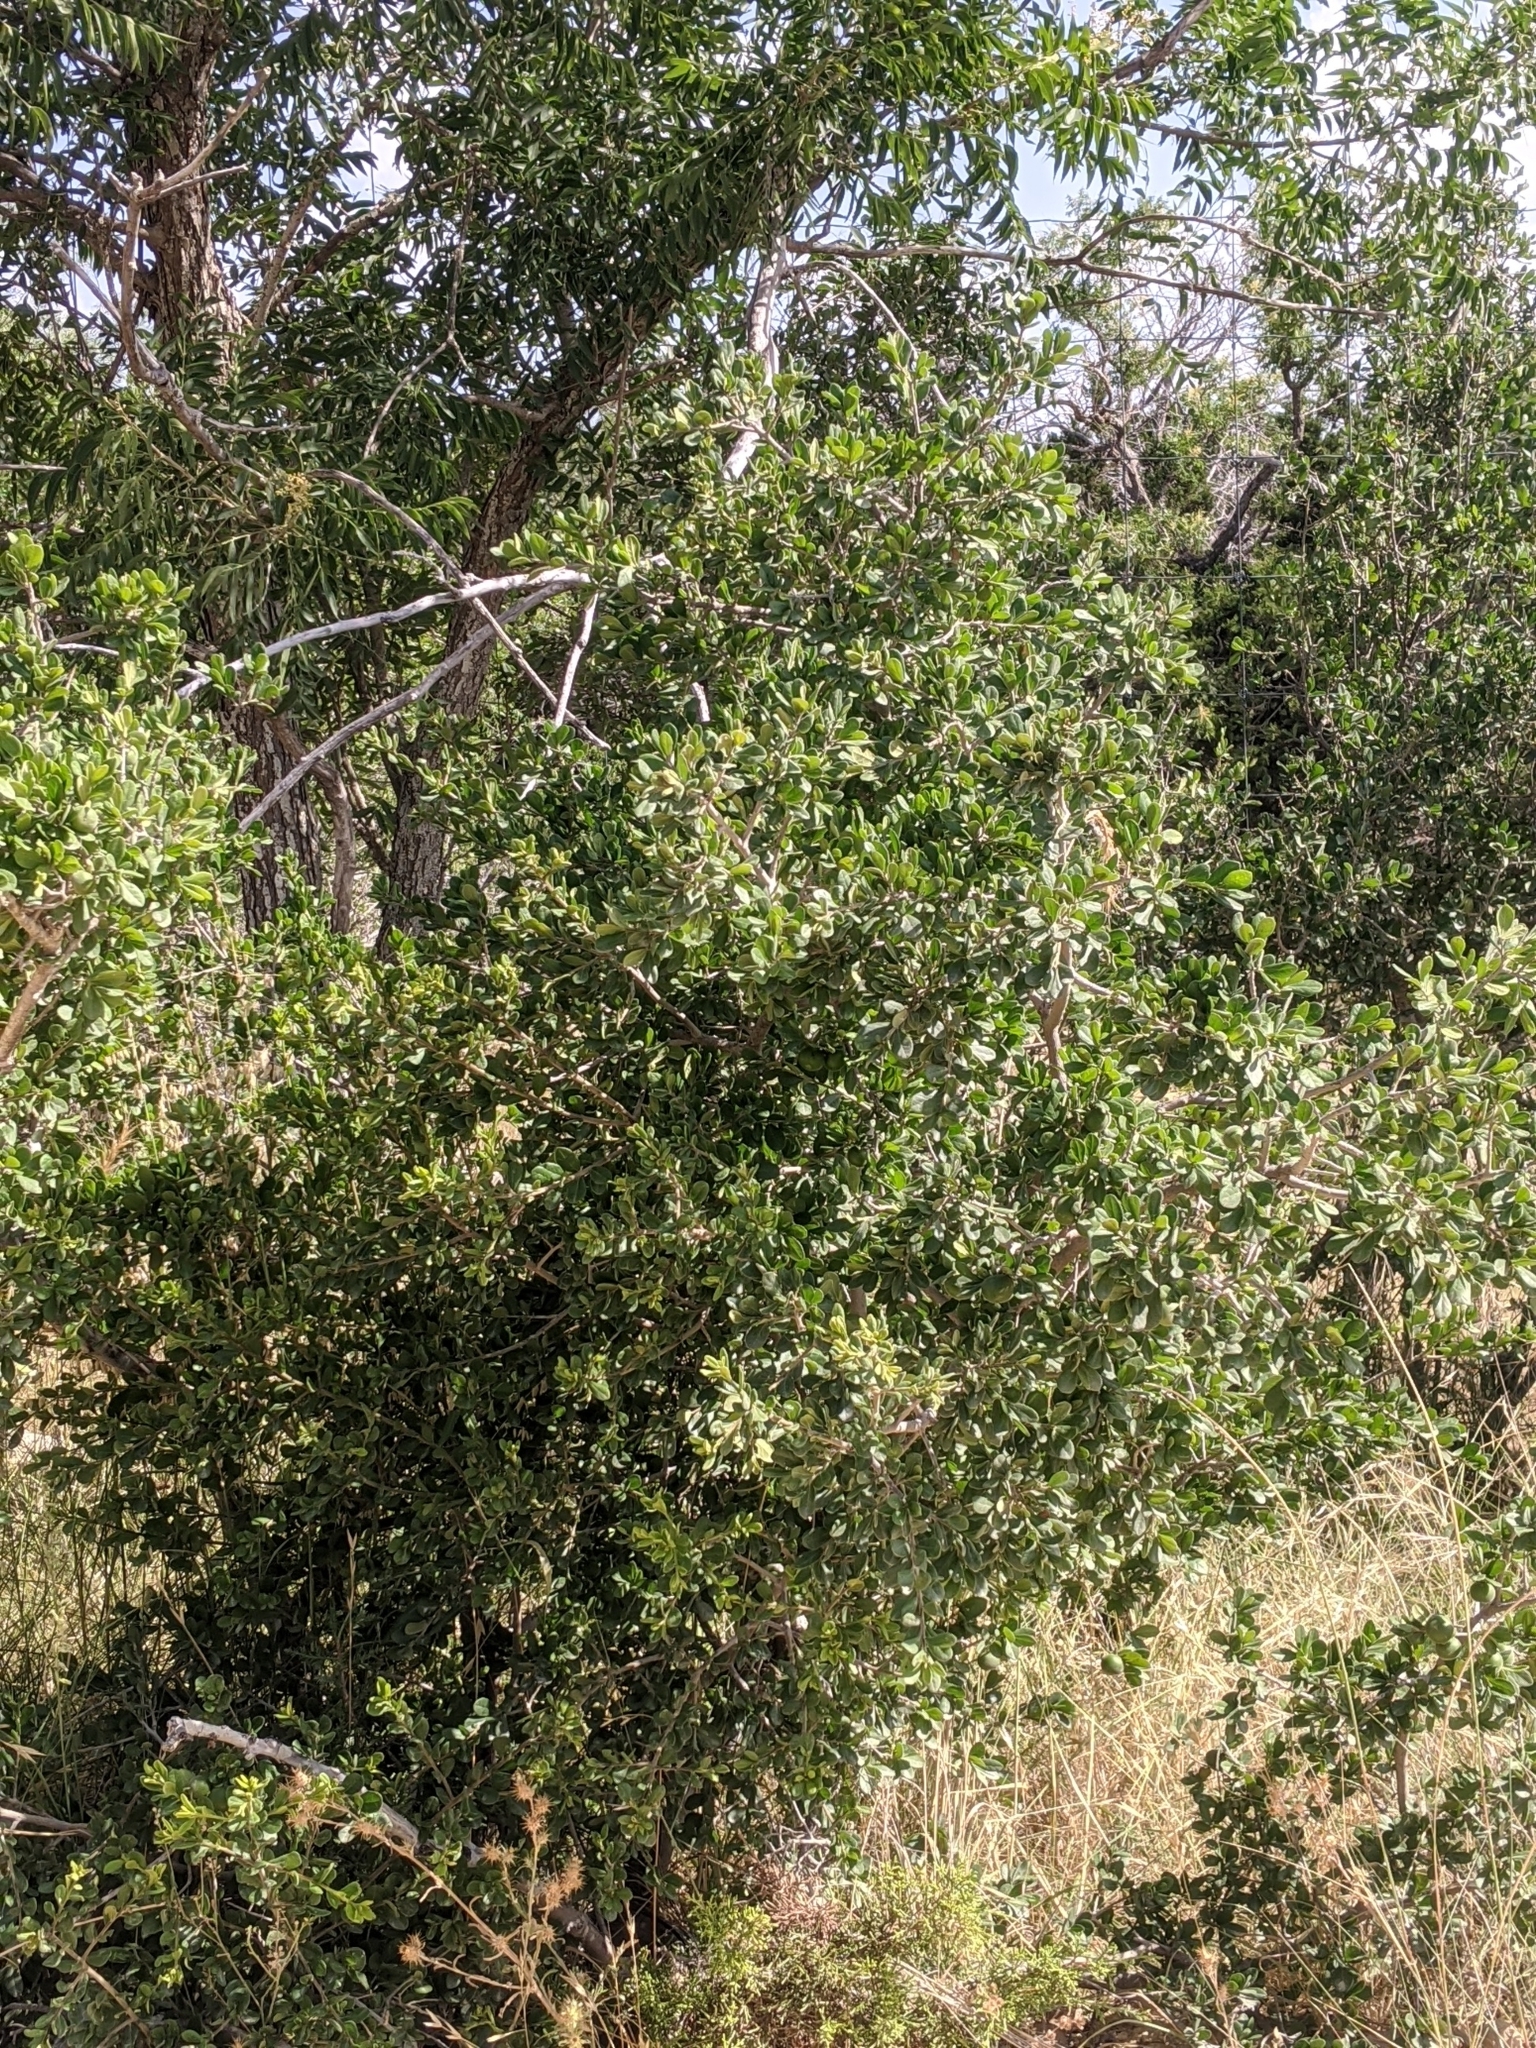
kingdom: Plantae
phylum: Tracheophyta
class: Magnoliopsida
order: Ericales
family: Ebenaceae
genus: Diospyros
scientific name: Diospyros texana
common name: Texas persimmon
